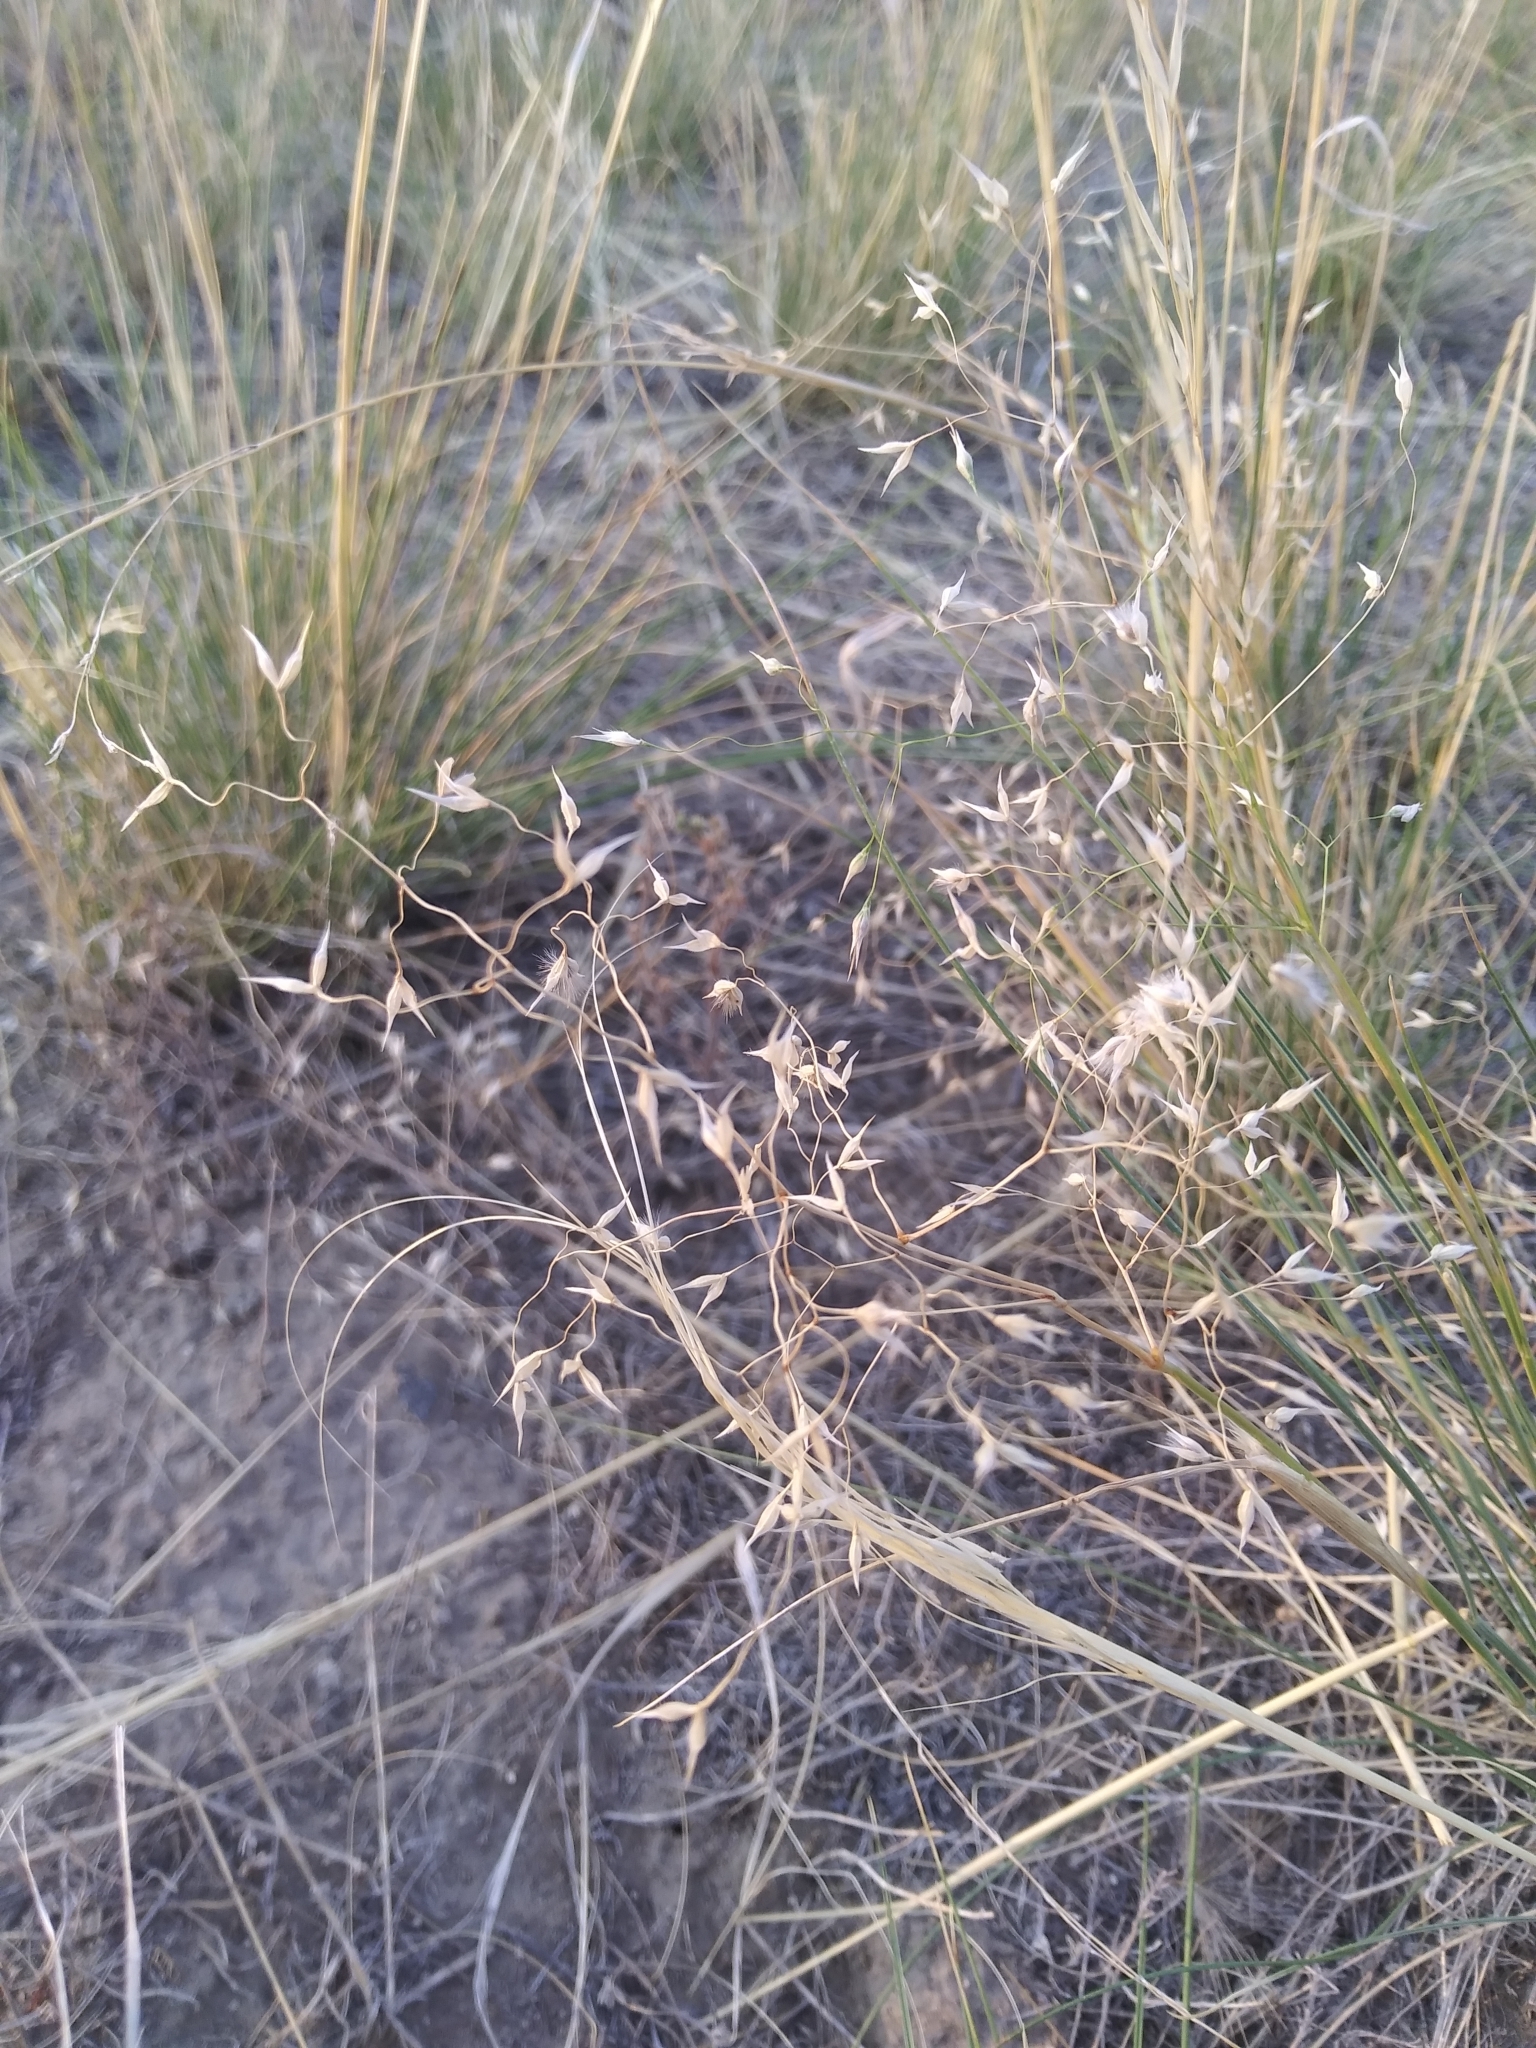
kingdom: Plantae
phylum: Tracheophyta
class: Liliopsida
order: Poales
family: Poaceae
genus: Eriocoma
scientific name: Eriocoma hymenoides
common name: Indian mountain ricegrass
